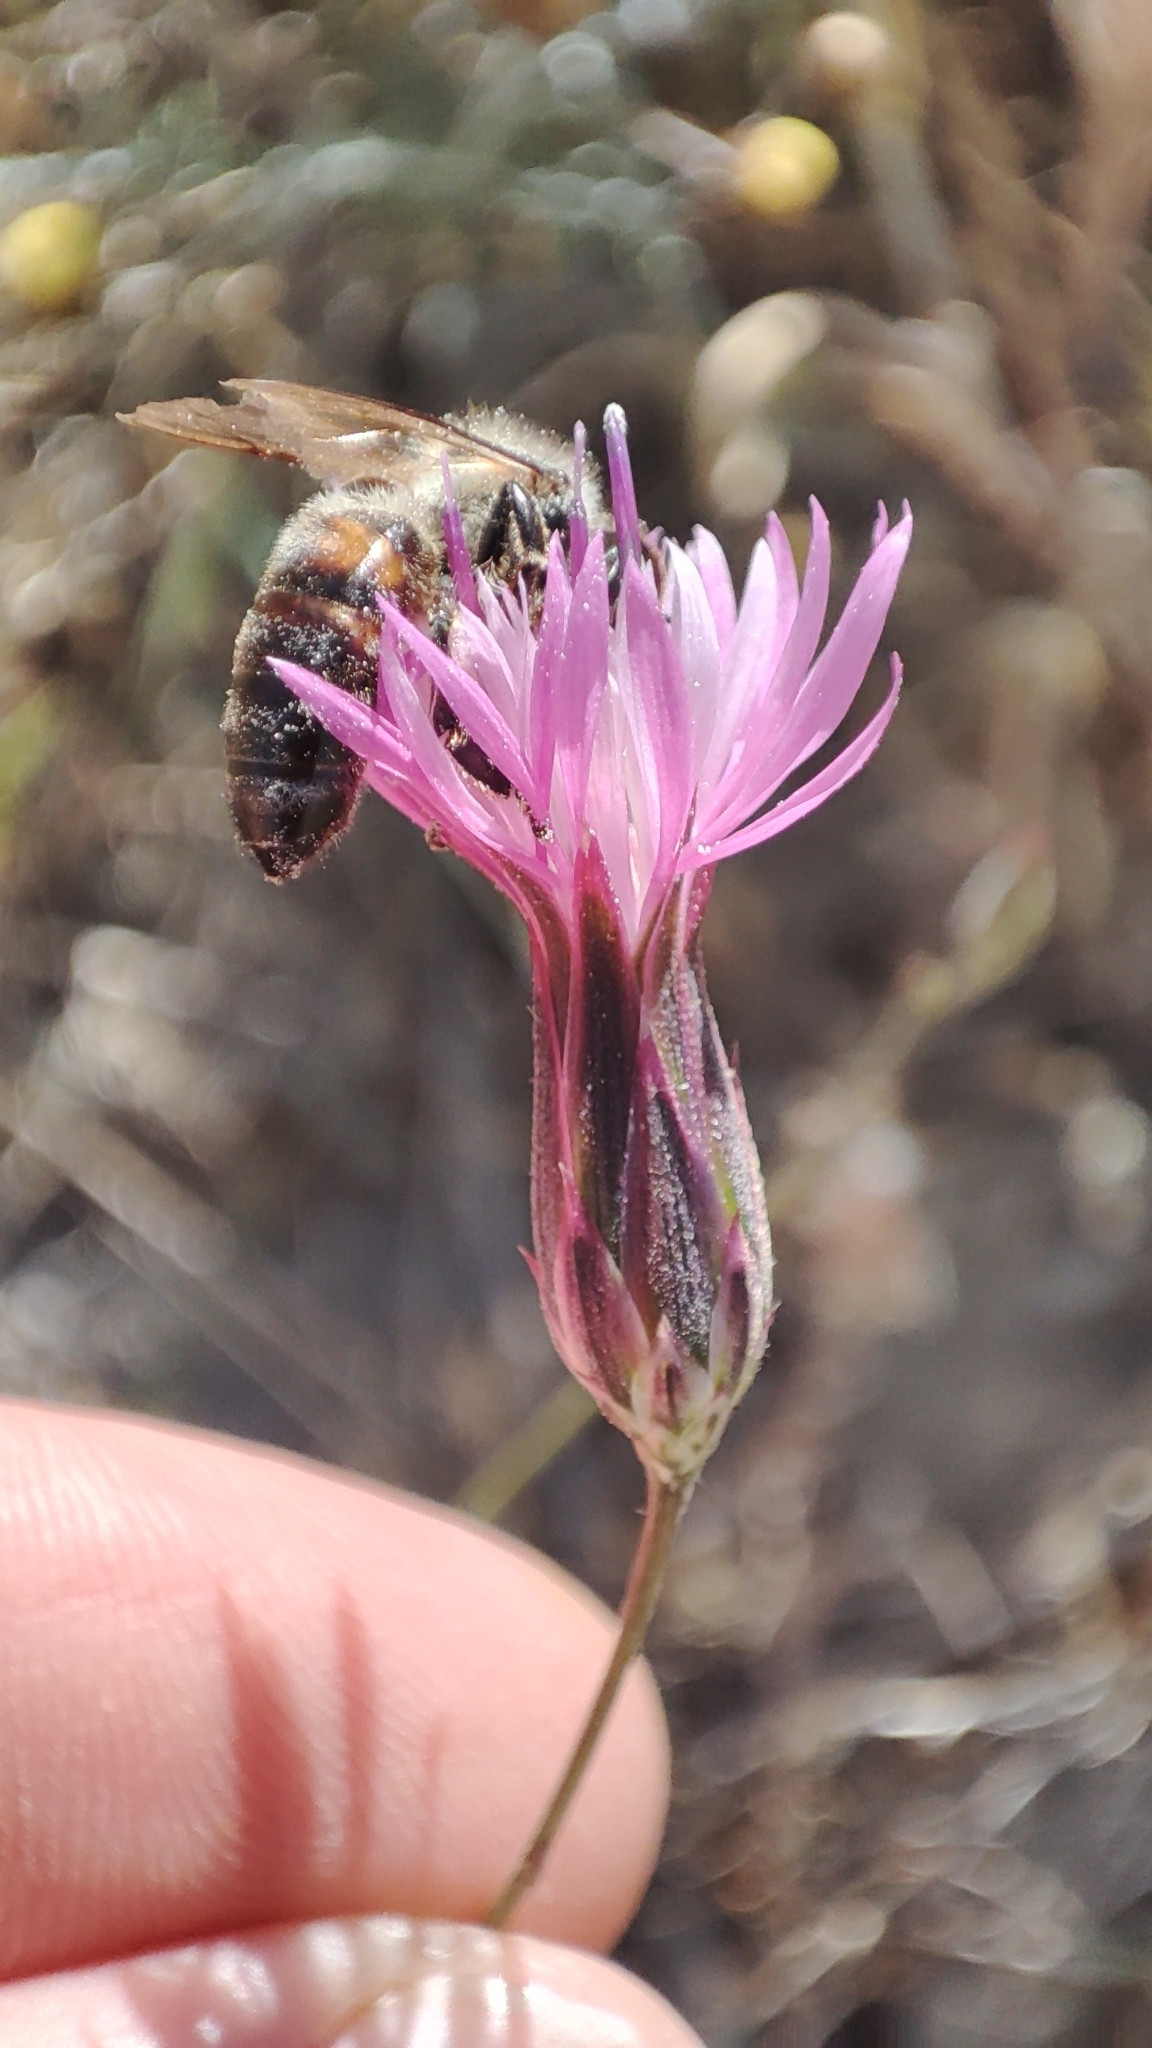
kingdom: Plantae
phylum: Tracheophyta
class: Magnoliopsida
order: Asterales
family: Asteraceae
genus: Crupina
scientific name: Crupina crupinastrum
